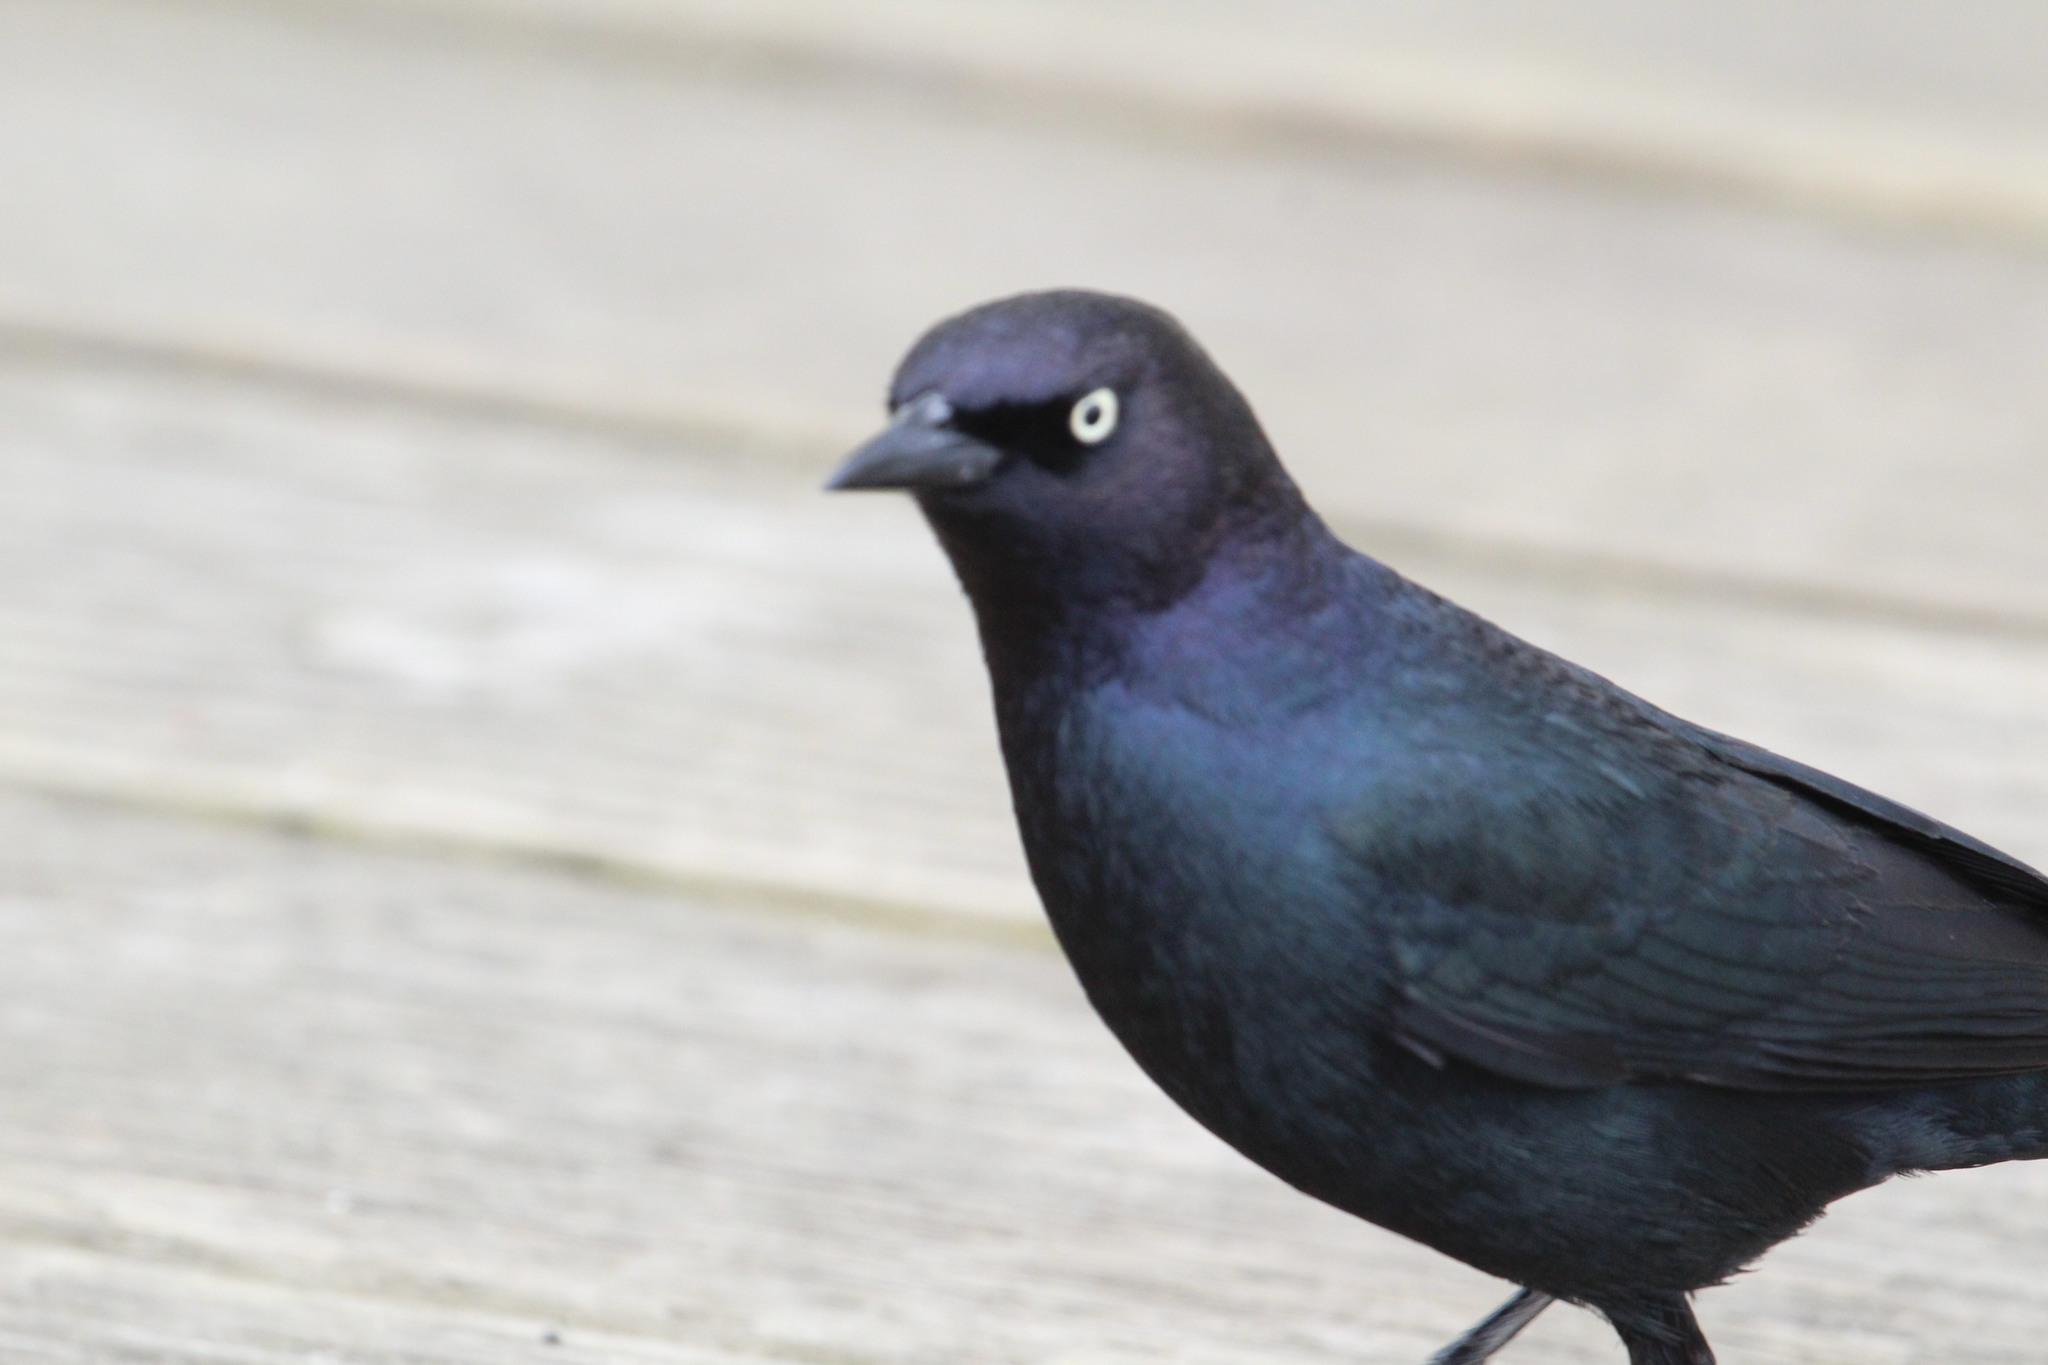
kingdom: Animalia
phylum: Chordata
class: Aves
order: Passeriformes
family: Icteridae
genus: Euphagus
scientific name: Euphagus cyanocephalus
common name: Brewer's blackbird
